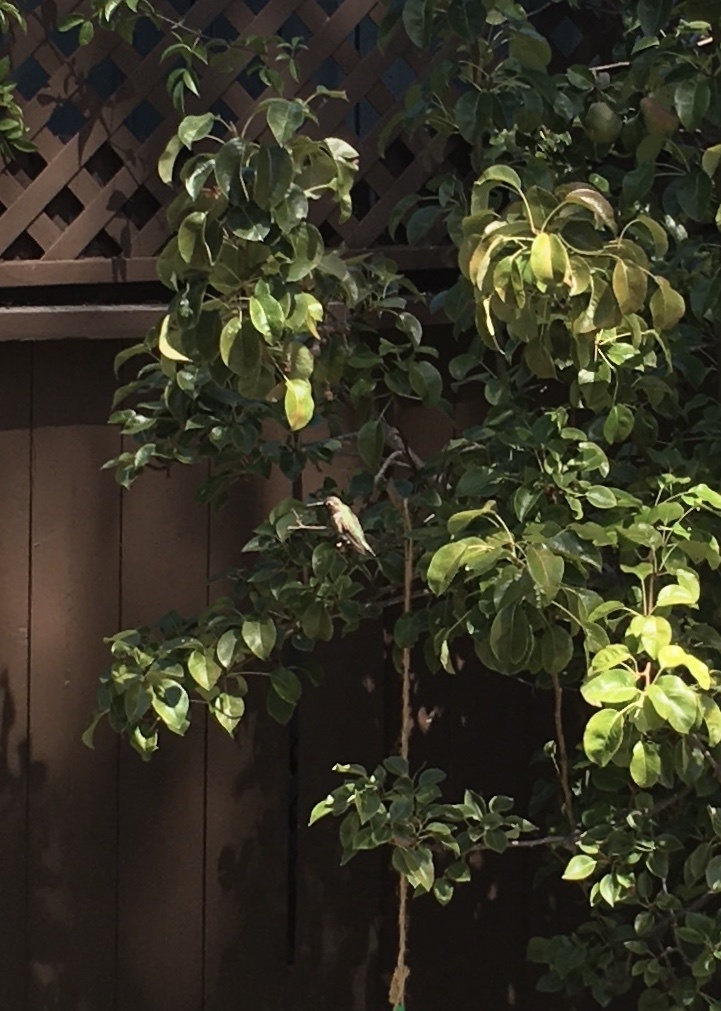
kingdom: Animalia
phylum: Chordata
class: Aves
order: Apodiformes
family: Trochilidae
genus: Calypte
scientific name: Calypte anna
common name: Anna's hummingbird
